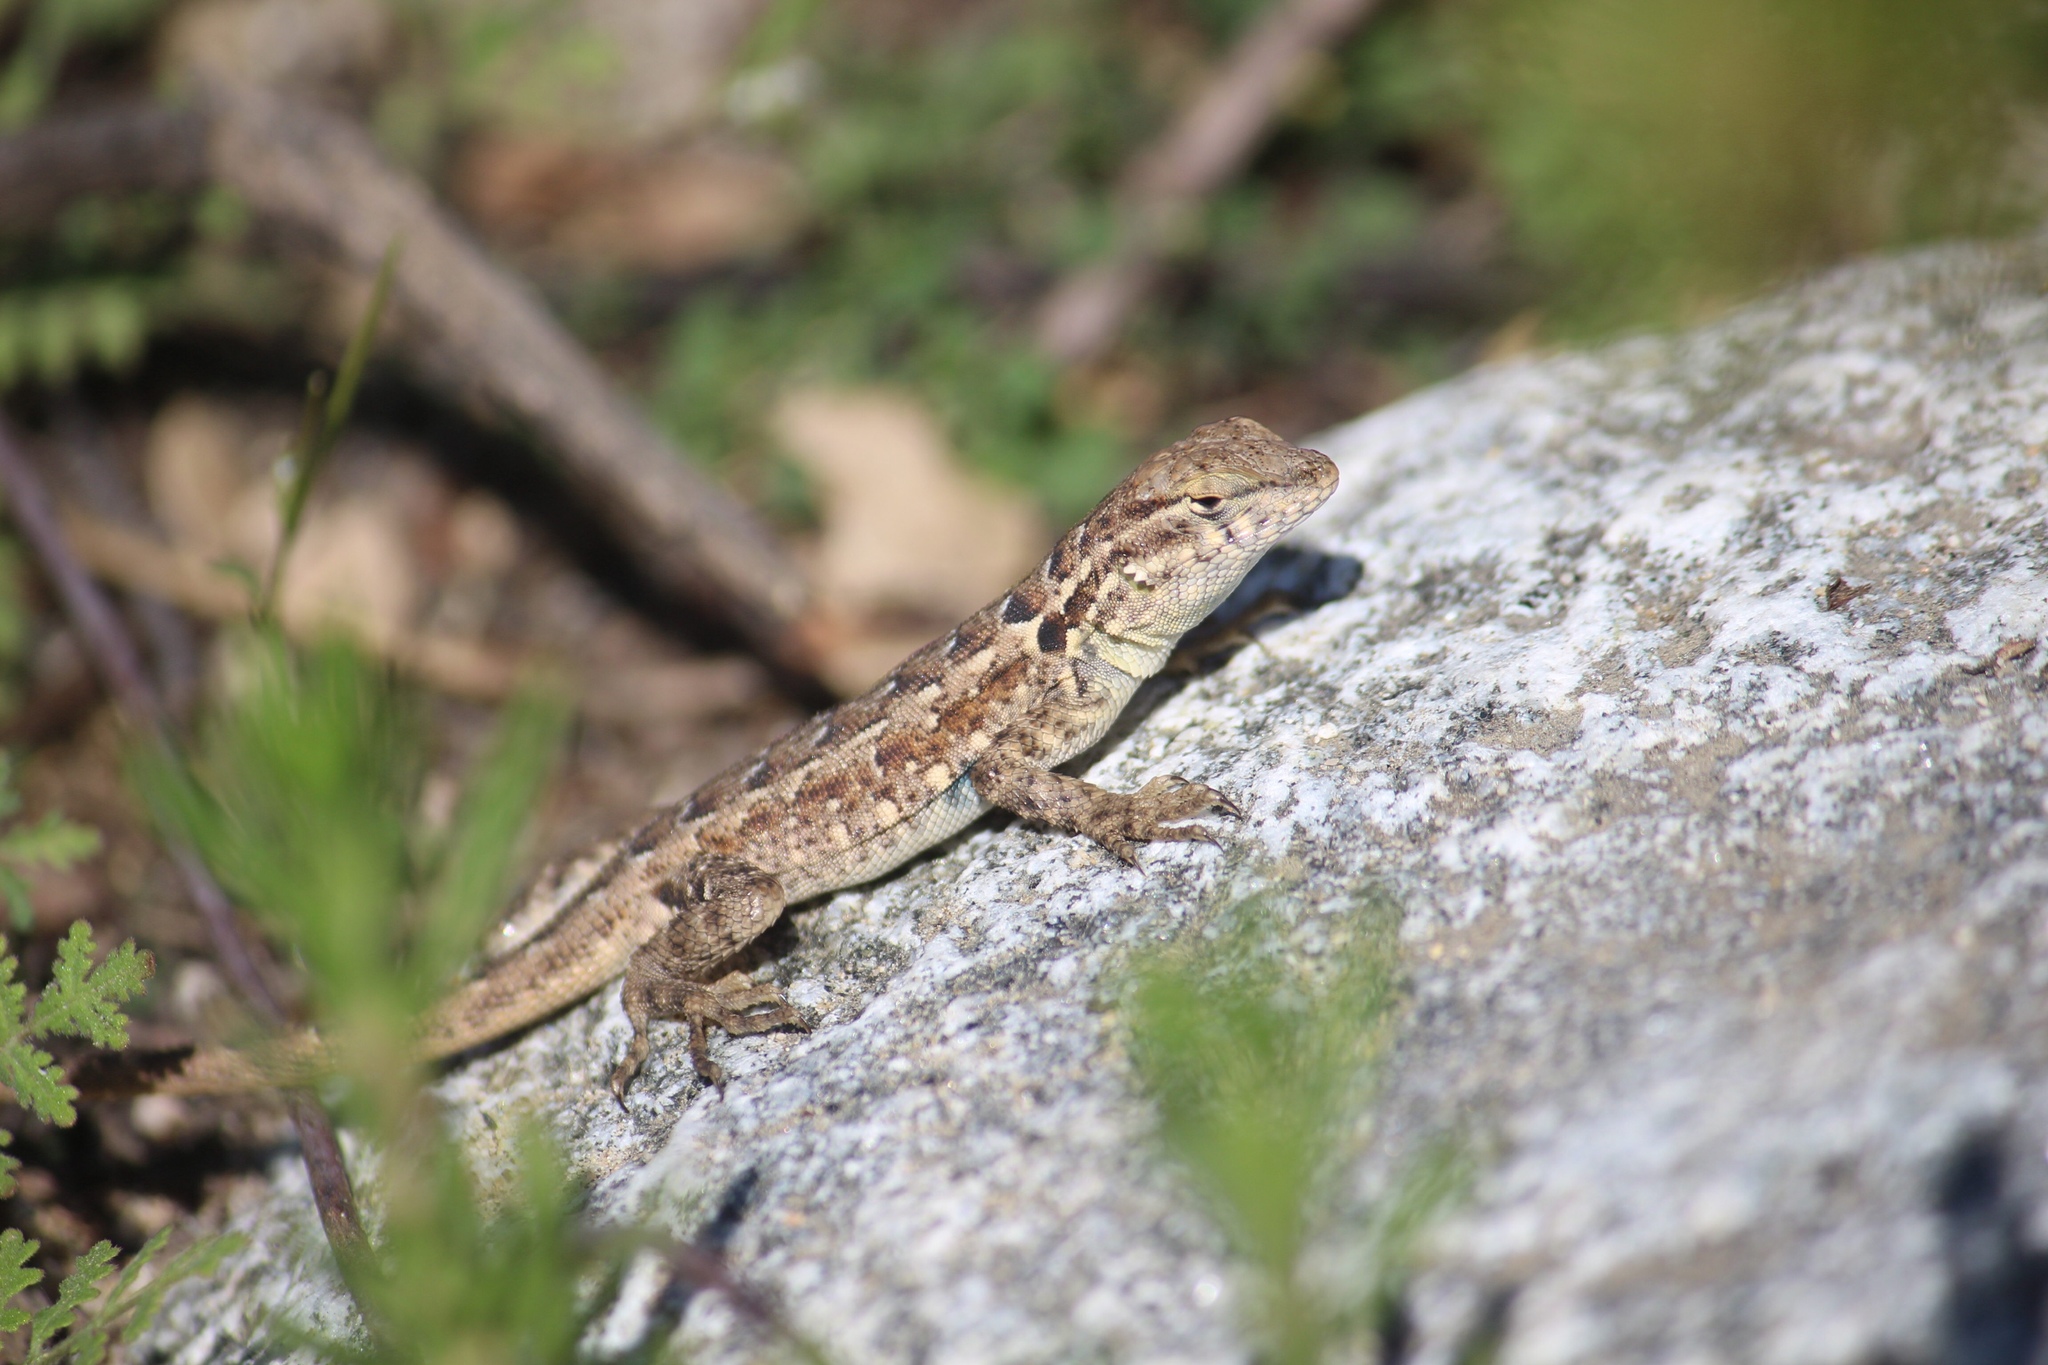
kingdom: Animalia
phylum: Chordata
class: Squamata
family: Phrynosomatidae
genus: Uta
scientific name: Uta stansburiana
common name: Side-blotched lizard
